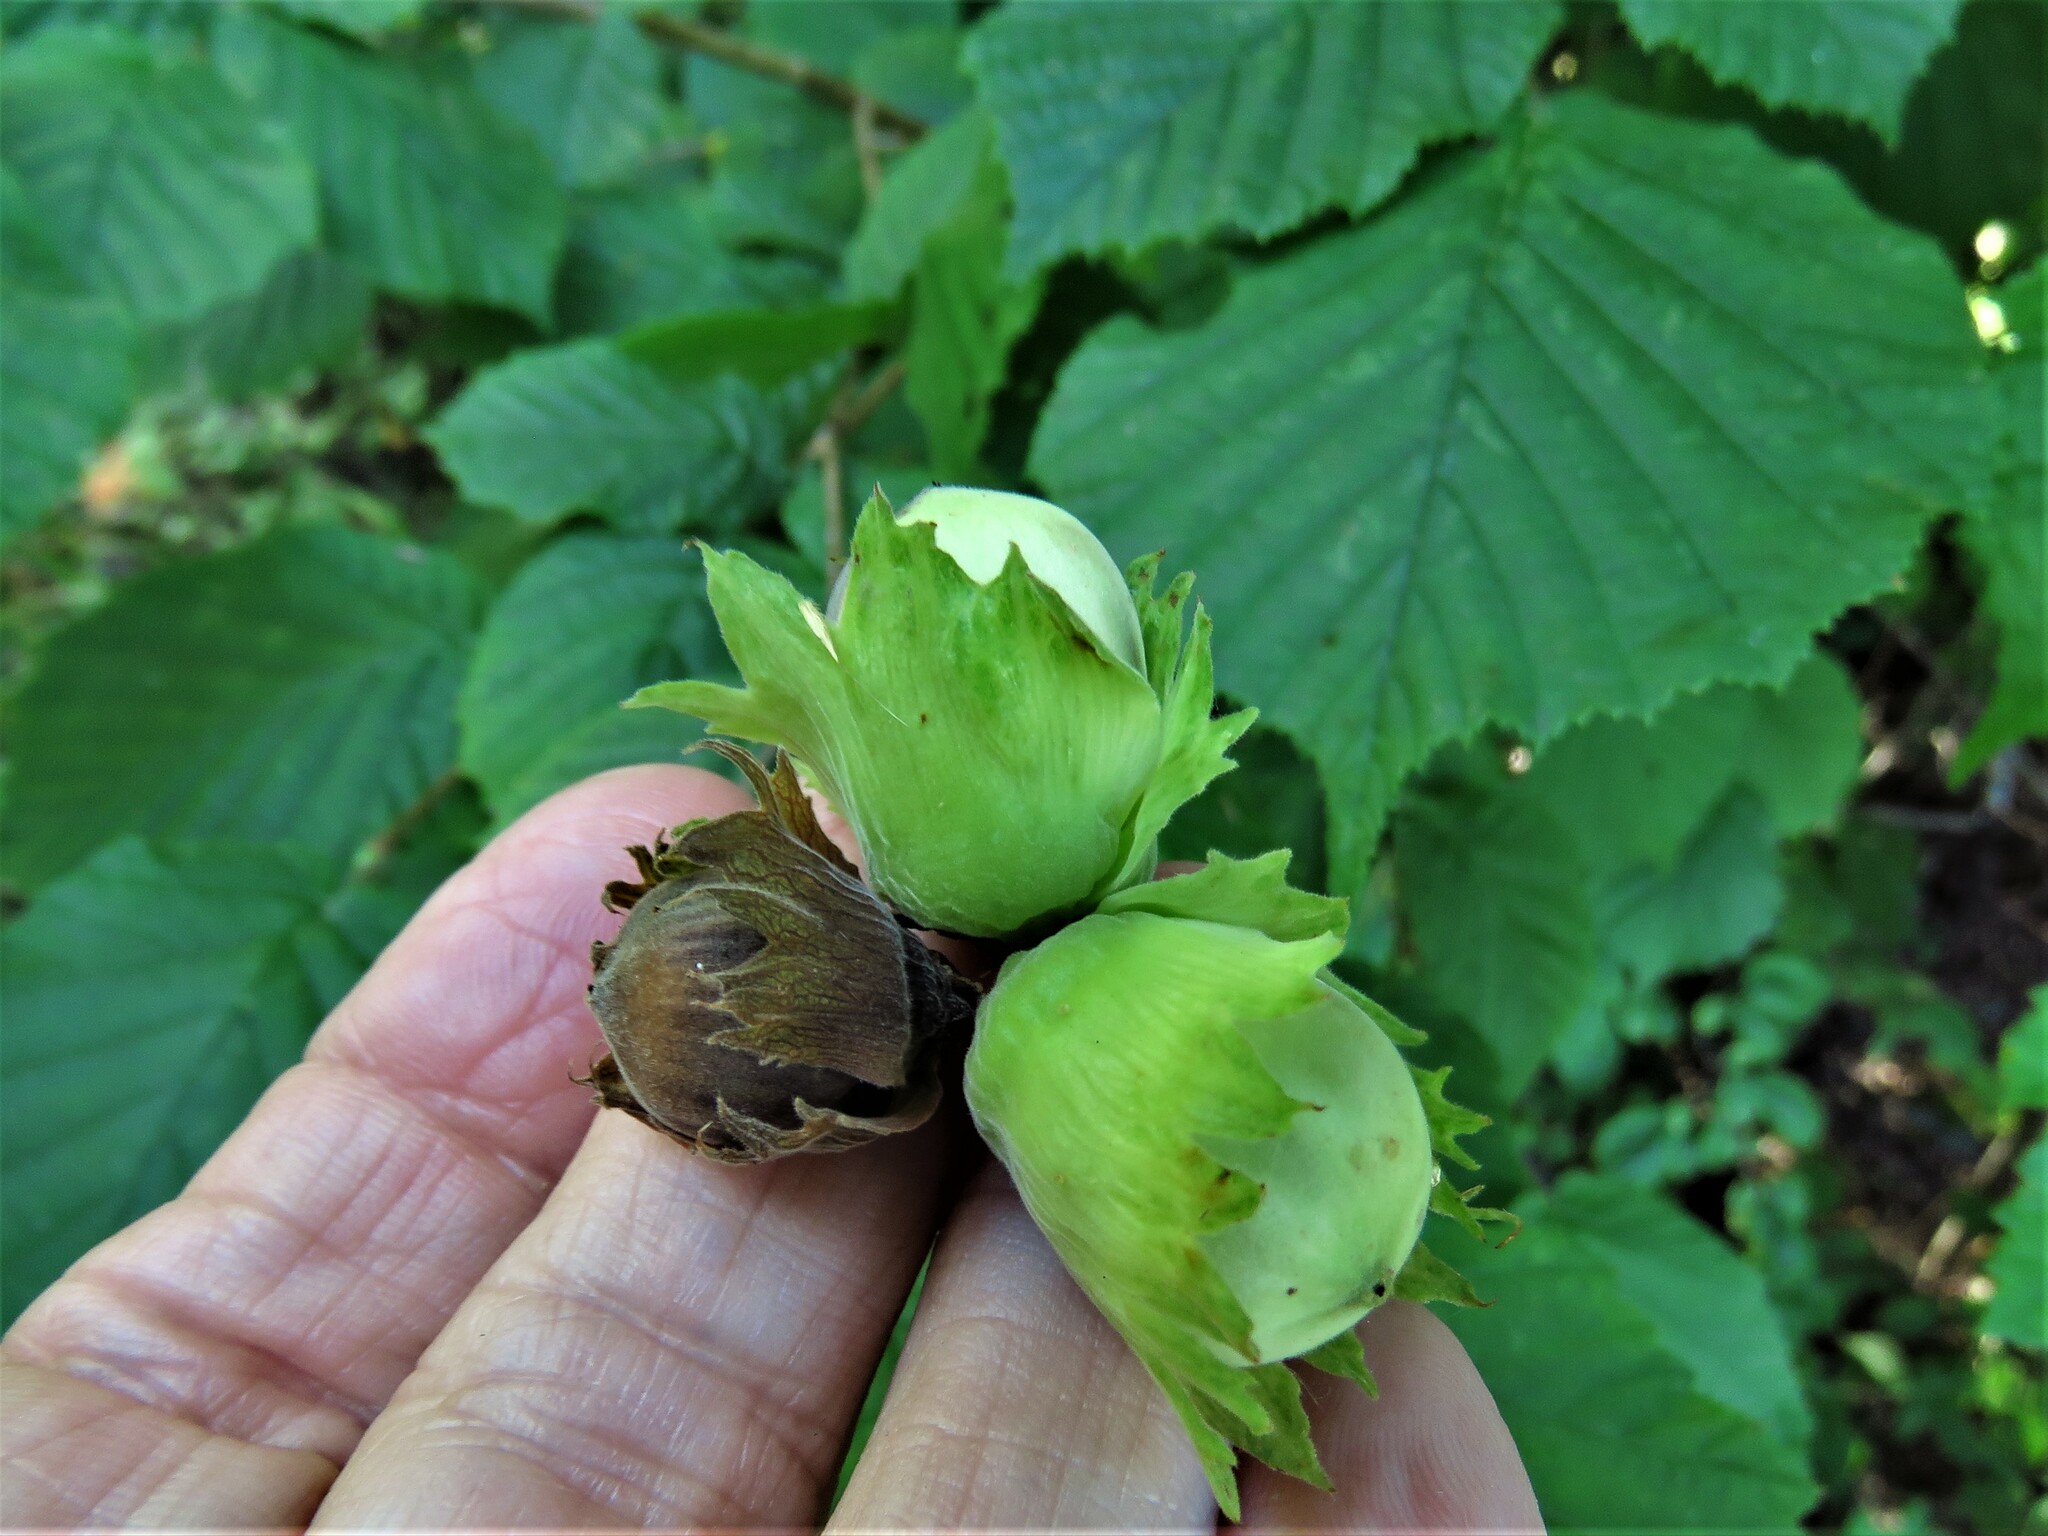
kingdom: Plantae
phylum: Tracheophyta
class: Magnoliopsida
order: Fagales
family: Betulaceae
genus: Corylus
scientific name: Corylus avellana
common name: European hazel
